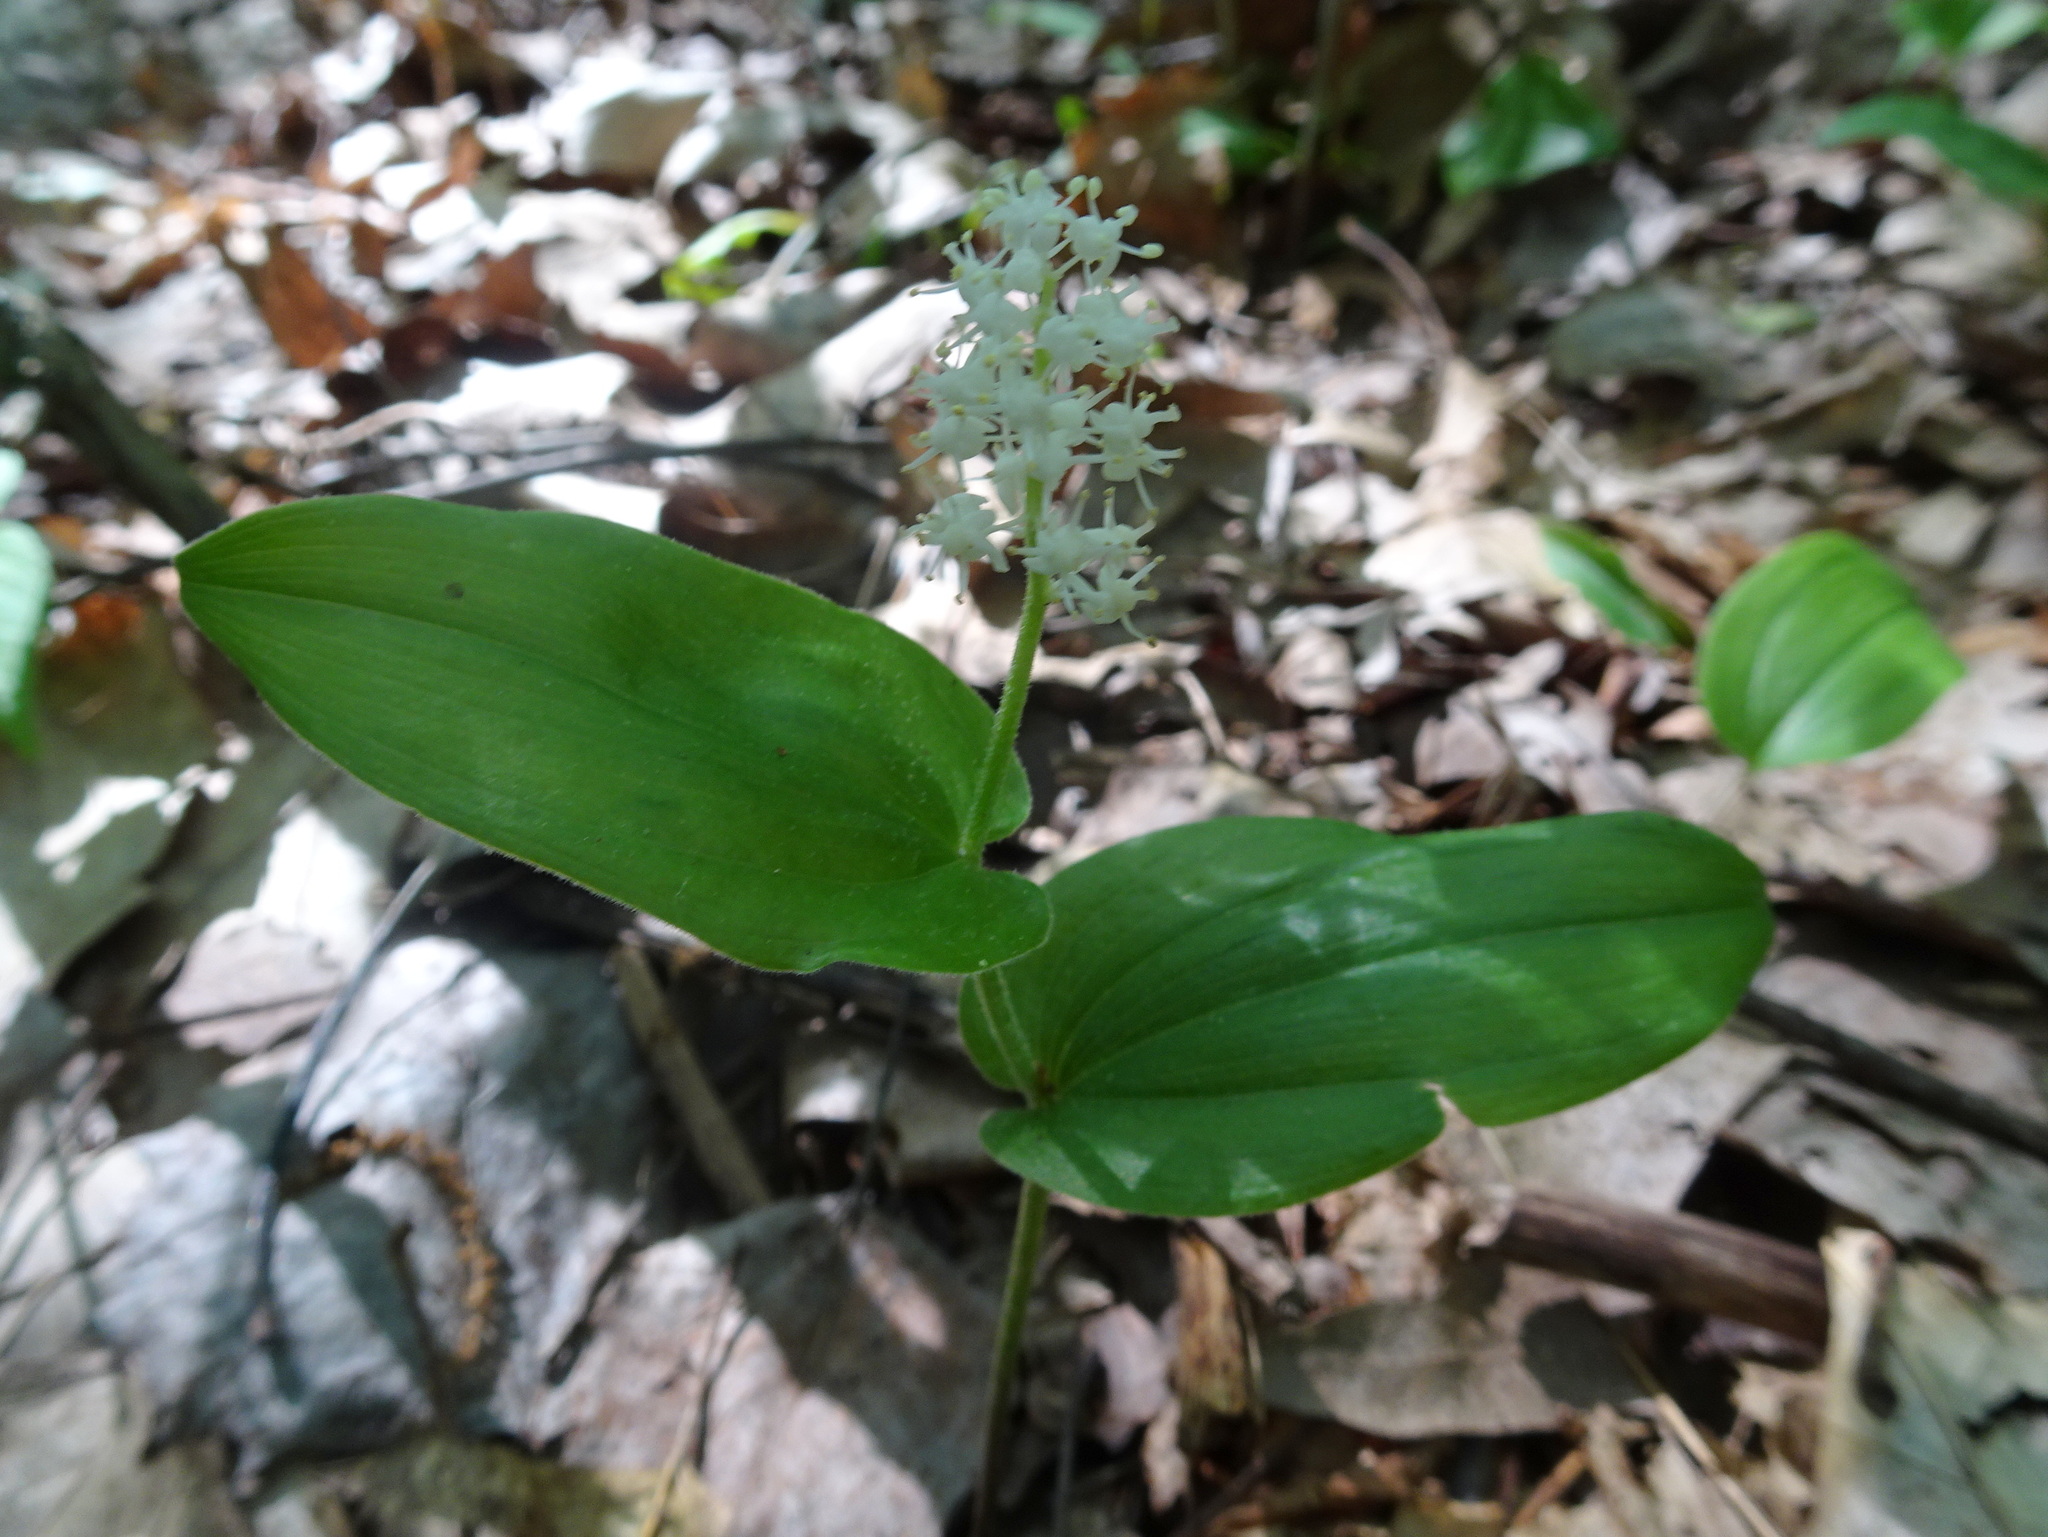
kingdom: Plantae
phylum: Tracheophyta
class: Liliopsida
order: Asparagales
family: Asparagaceae
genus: Maianthemum
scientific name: Maianthemum canadense
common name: False lily-of-the-valley
